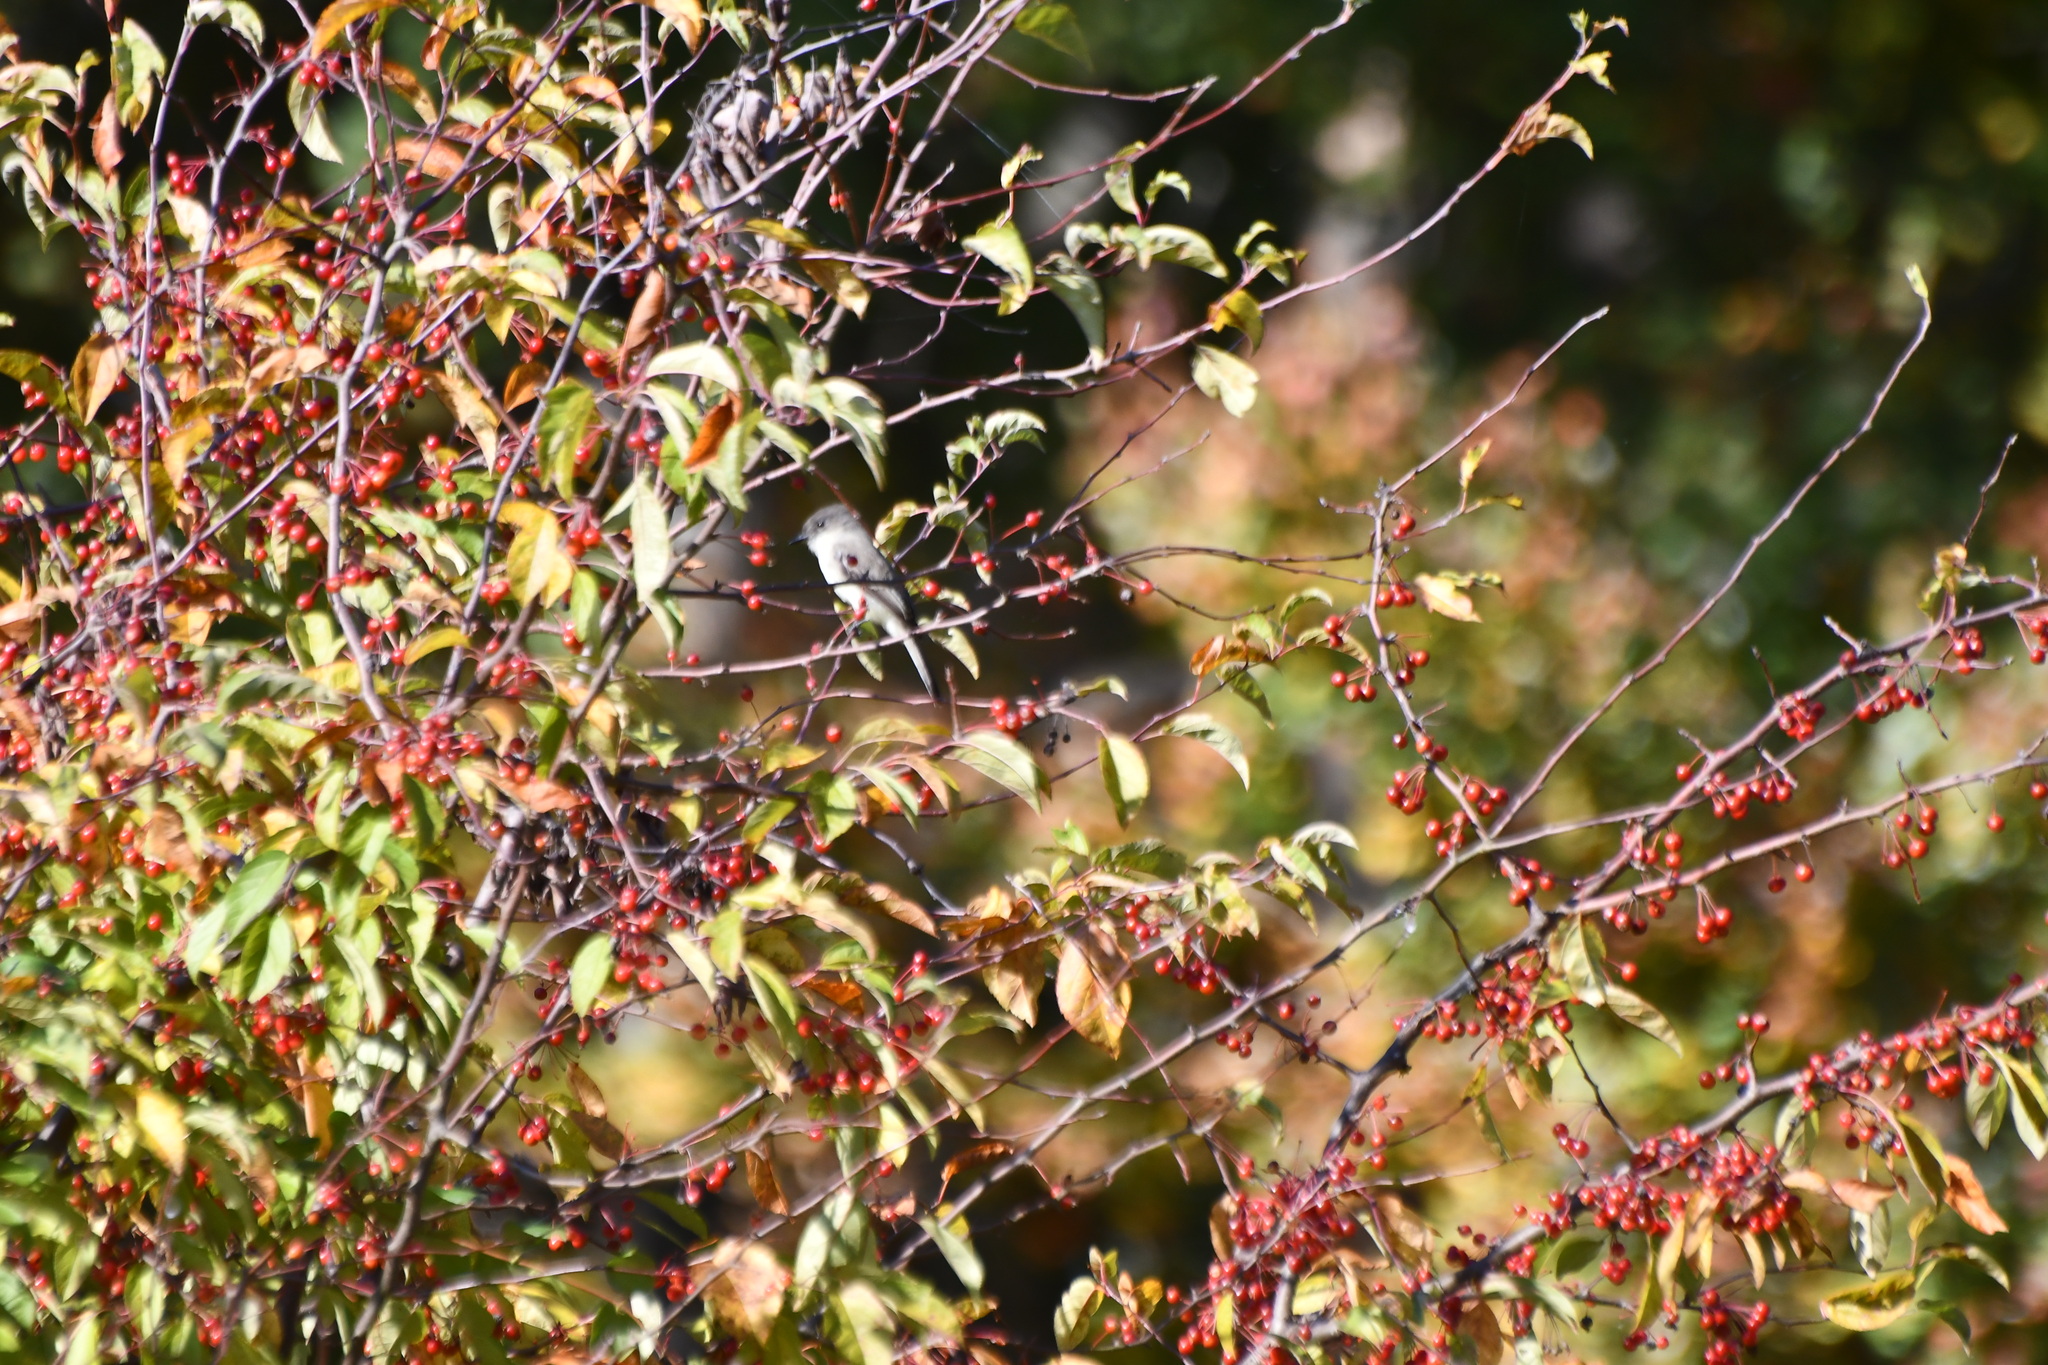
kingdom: Animalia
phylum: Chordata
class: Aves
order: Passeriformes
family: Tyrannidae
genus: Sayornis
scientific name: Sayornis phoebe
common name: Eastern phoebe
